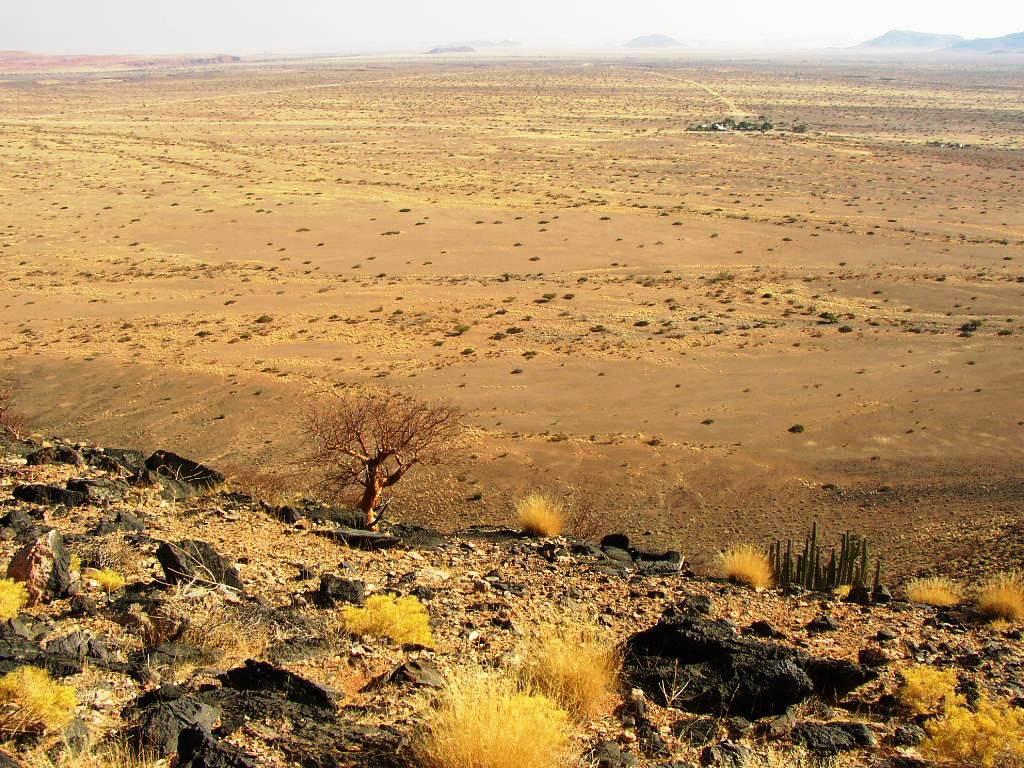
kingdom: Plantae
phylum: Tracheophyta
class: Magnoliopsida
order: Sapindales
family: Burseraceae
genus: Commiphora
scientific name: Commiphora glaucescens
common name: Blue-leaved corkwood
